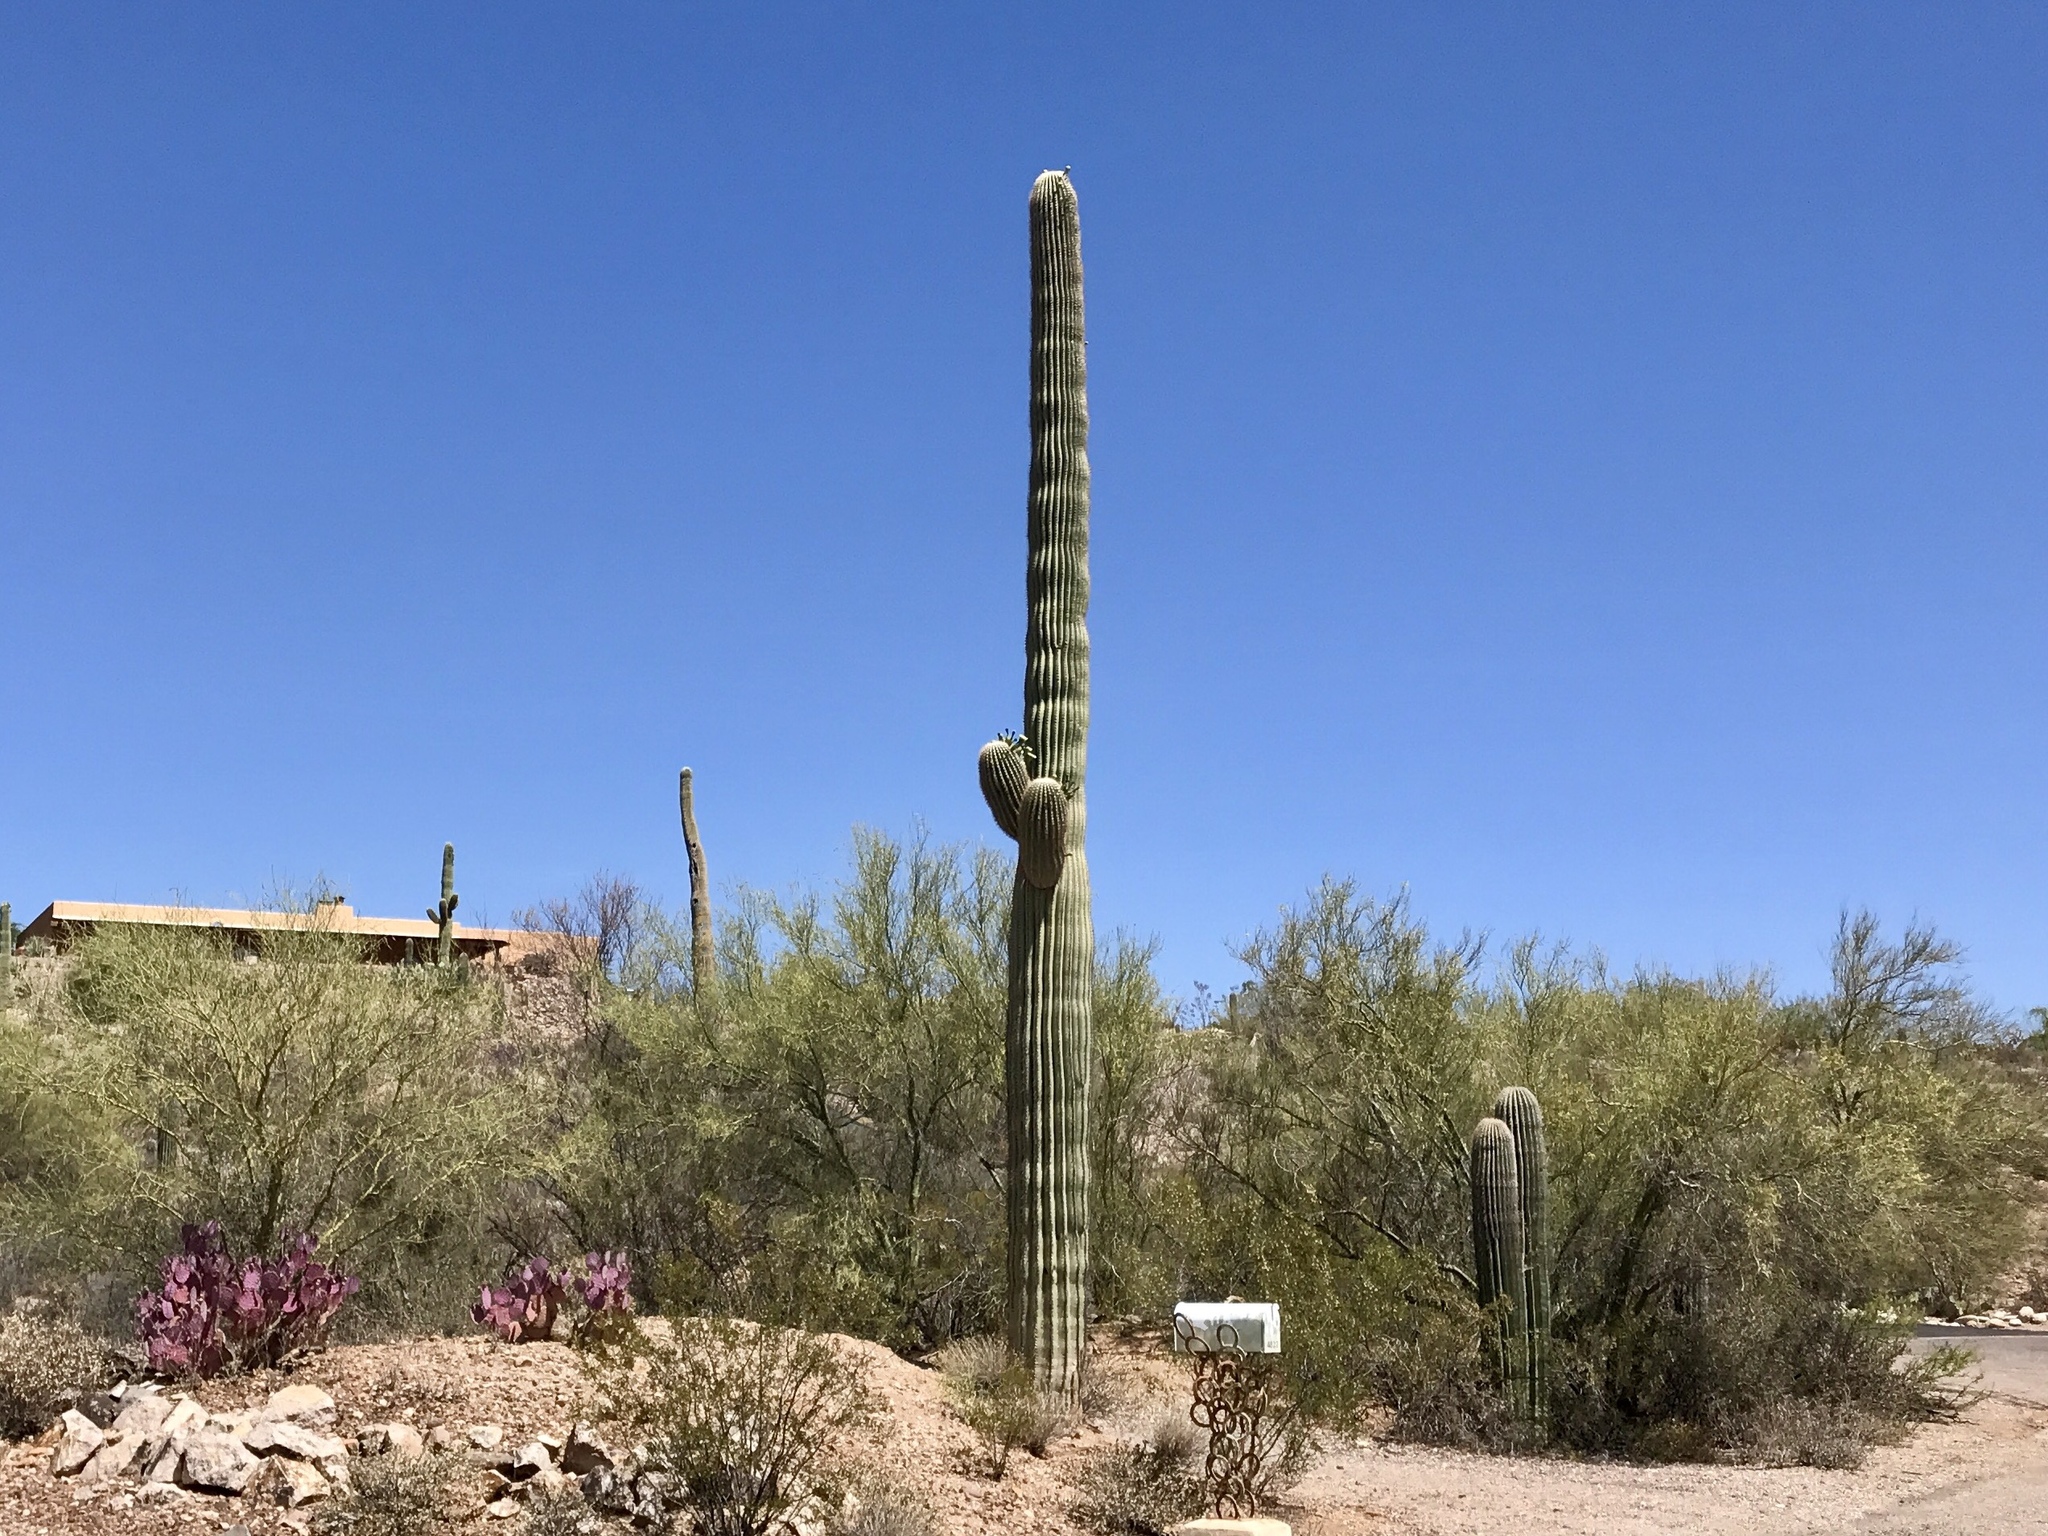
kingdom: Plantae
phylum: Tracheophyta
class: Magnoliopsida
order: Caryophyllales
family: Cactaceae
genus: Carnegiea
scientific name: Carnegiea gigantea
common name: Saguaro
